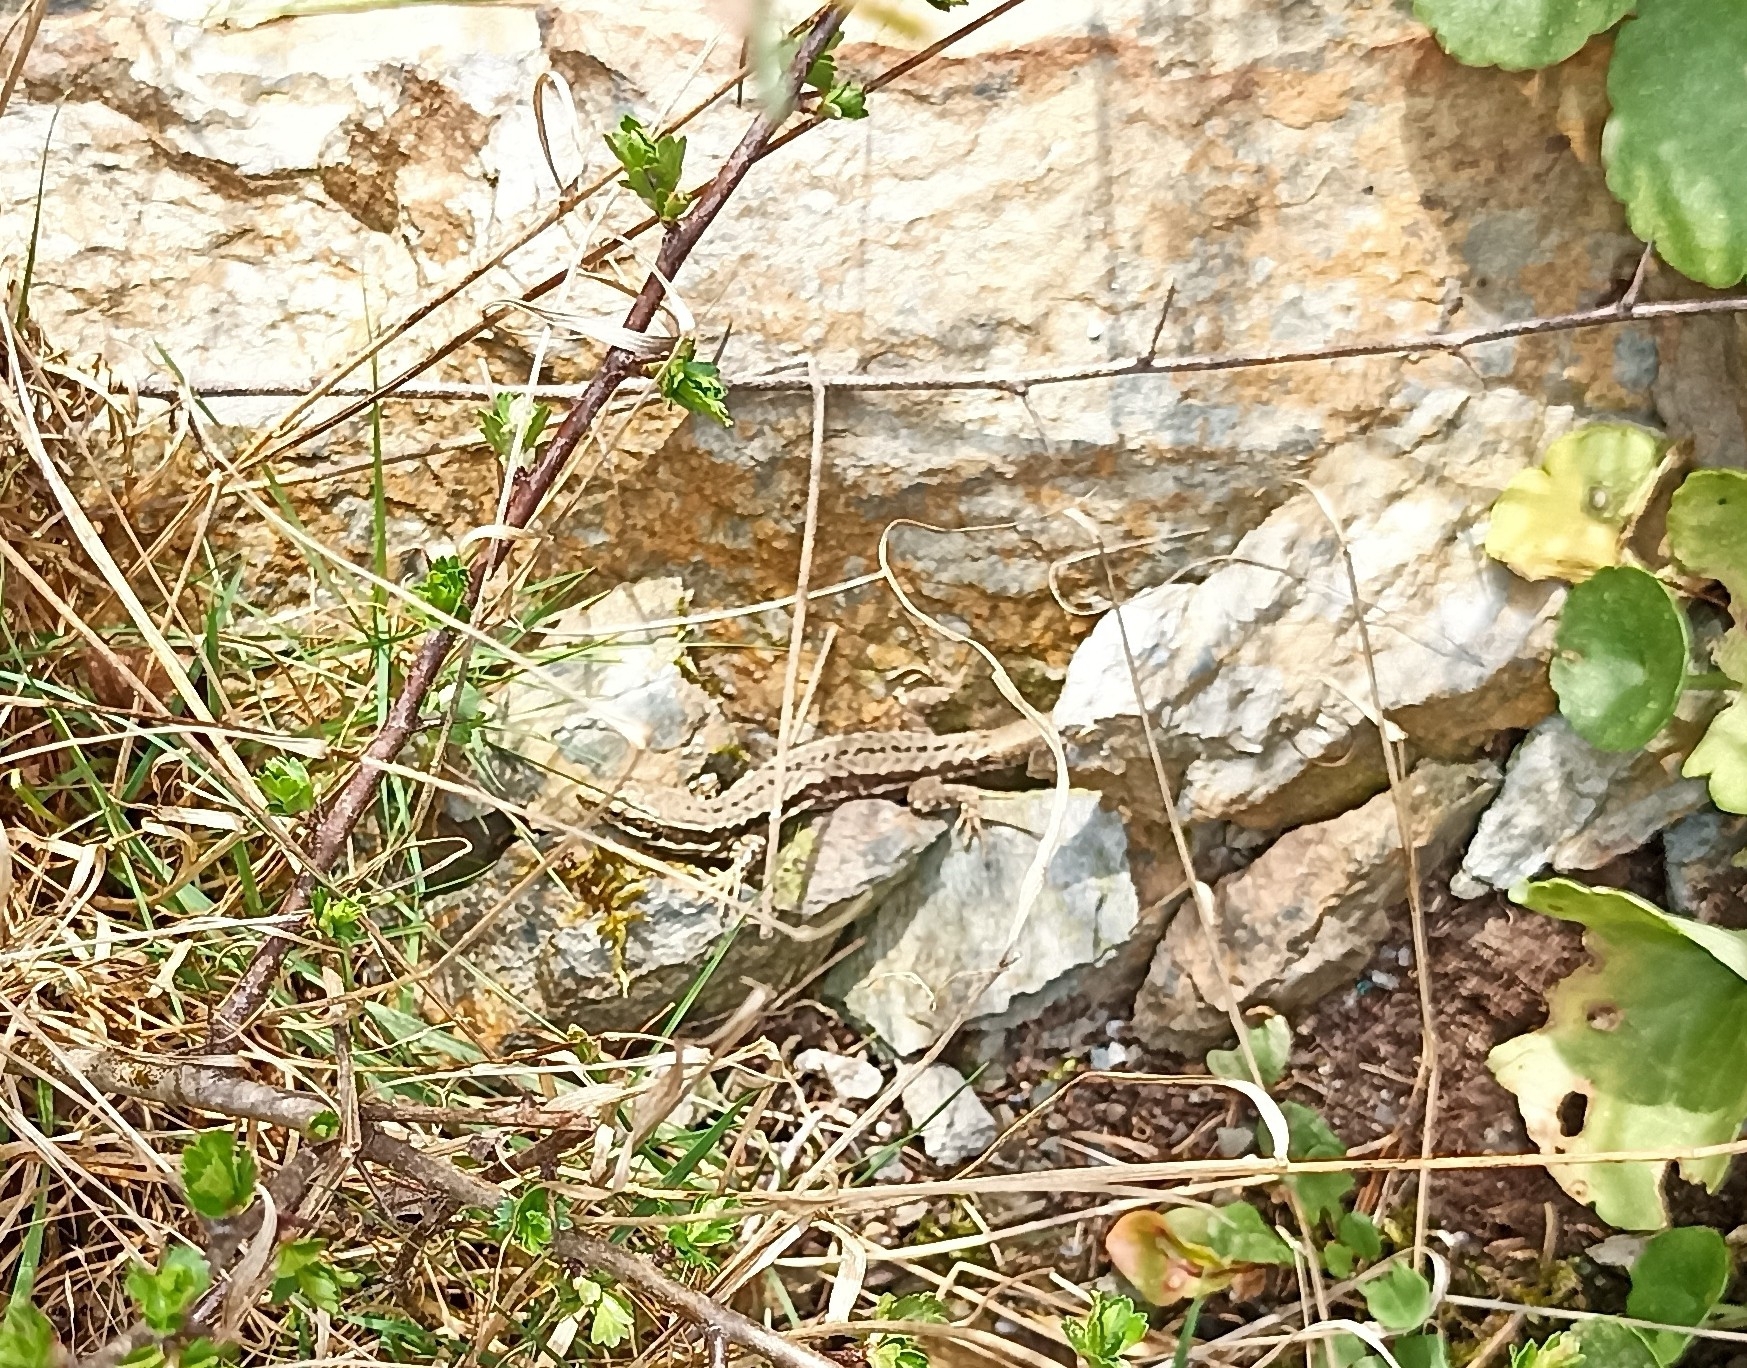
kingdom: Animalia
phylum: Chordata
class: Squamata
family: Lacertidae
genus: Podarcis
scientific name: Podarcis muralis
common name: Common wall lizard
